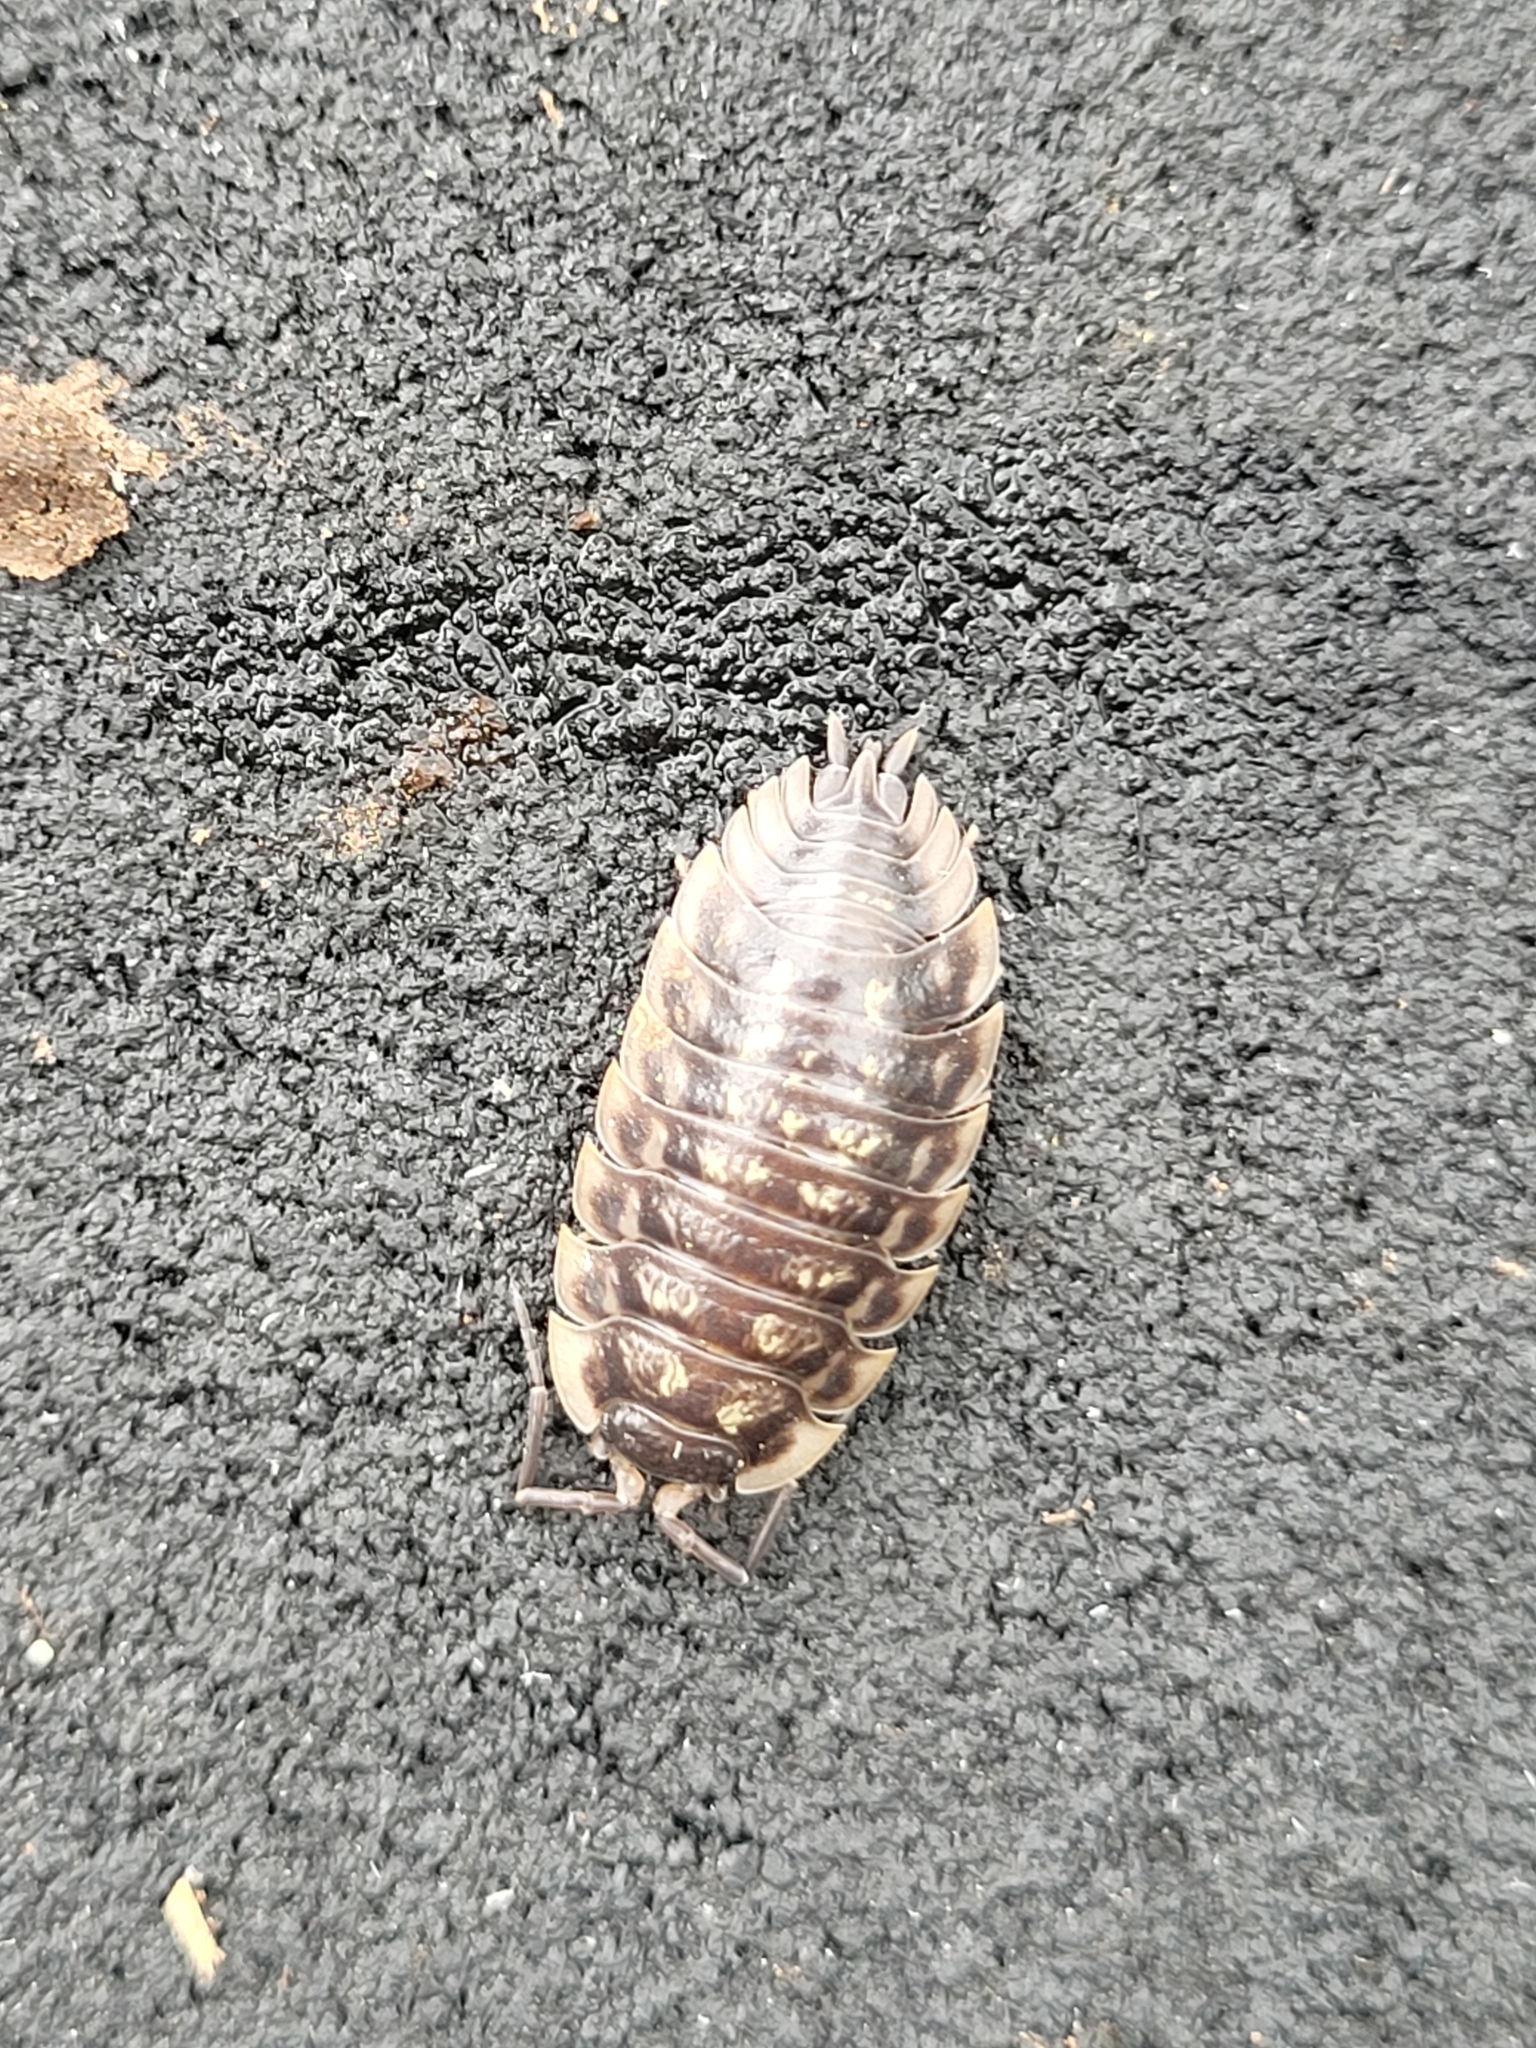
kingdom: Animalia
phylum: Arthropoda
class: Malacostraca
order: Isopoda
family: Oniscidae
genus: Oniscus
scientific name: Oniscus asellus
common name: Common shiny woodlouse
